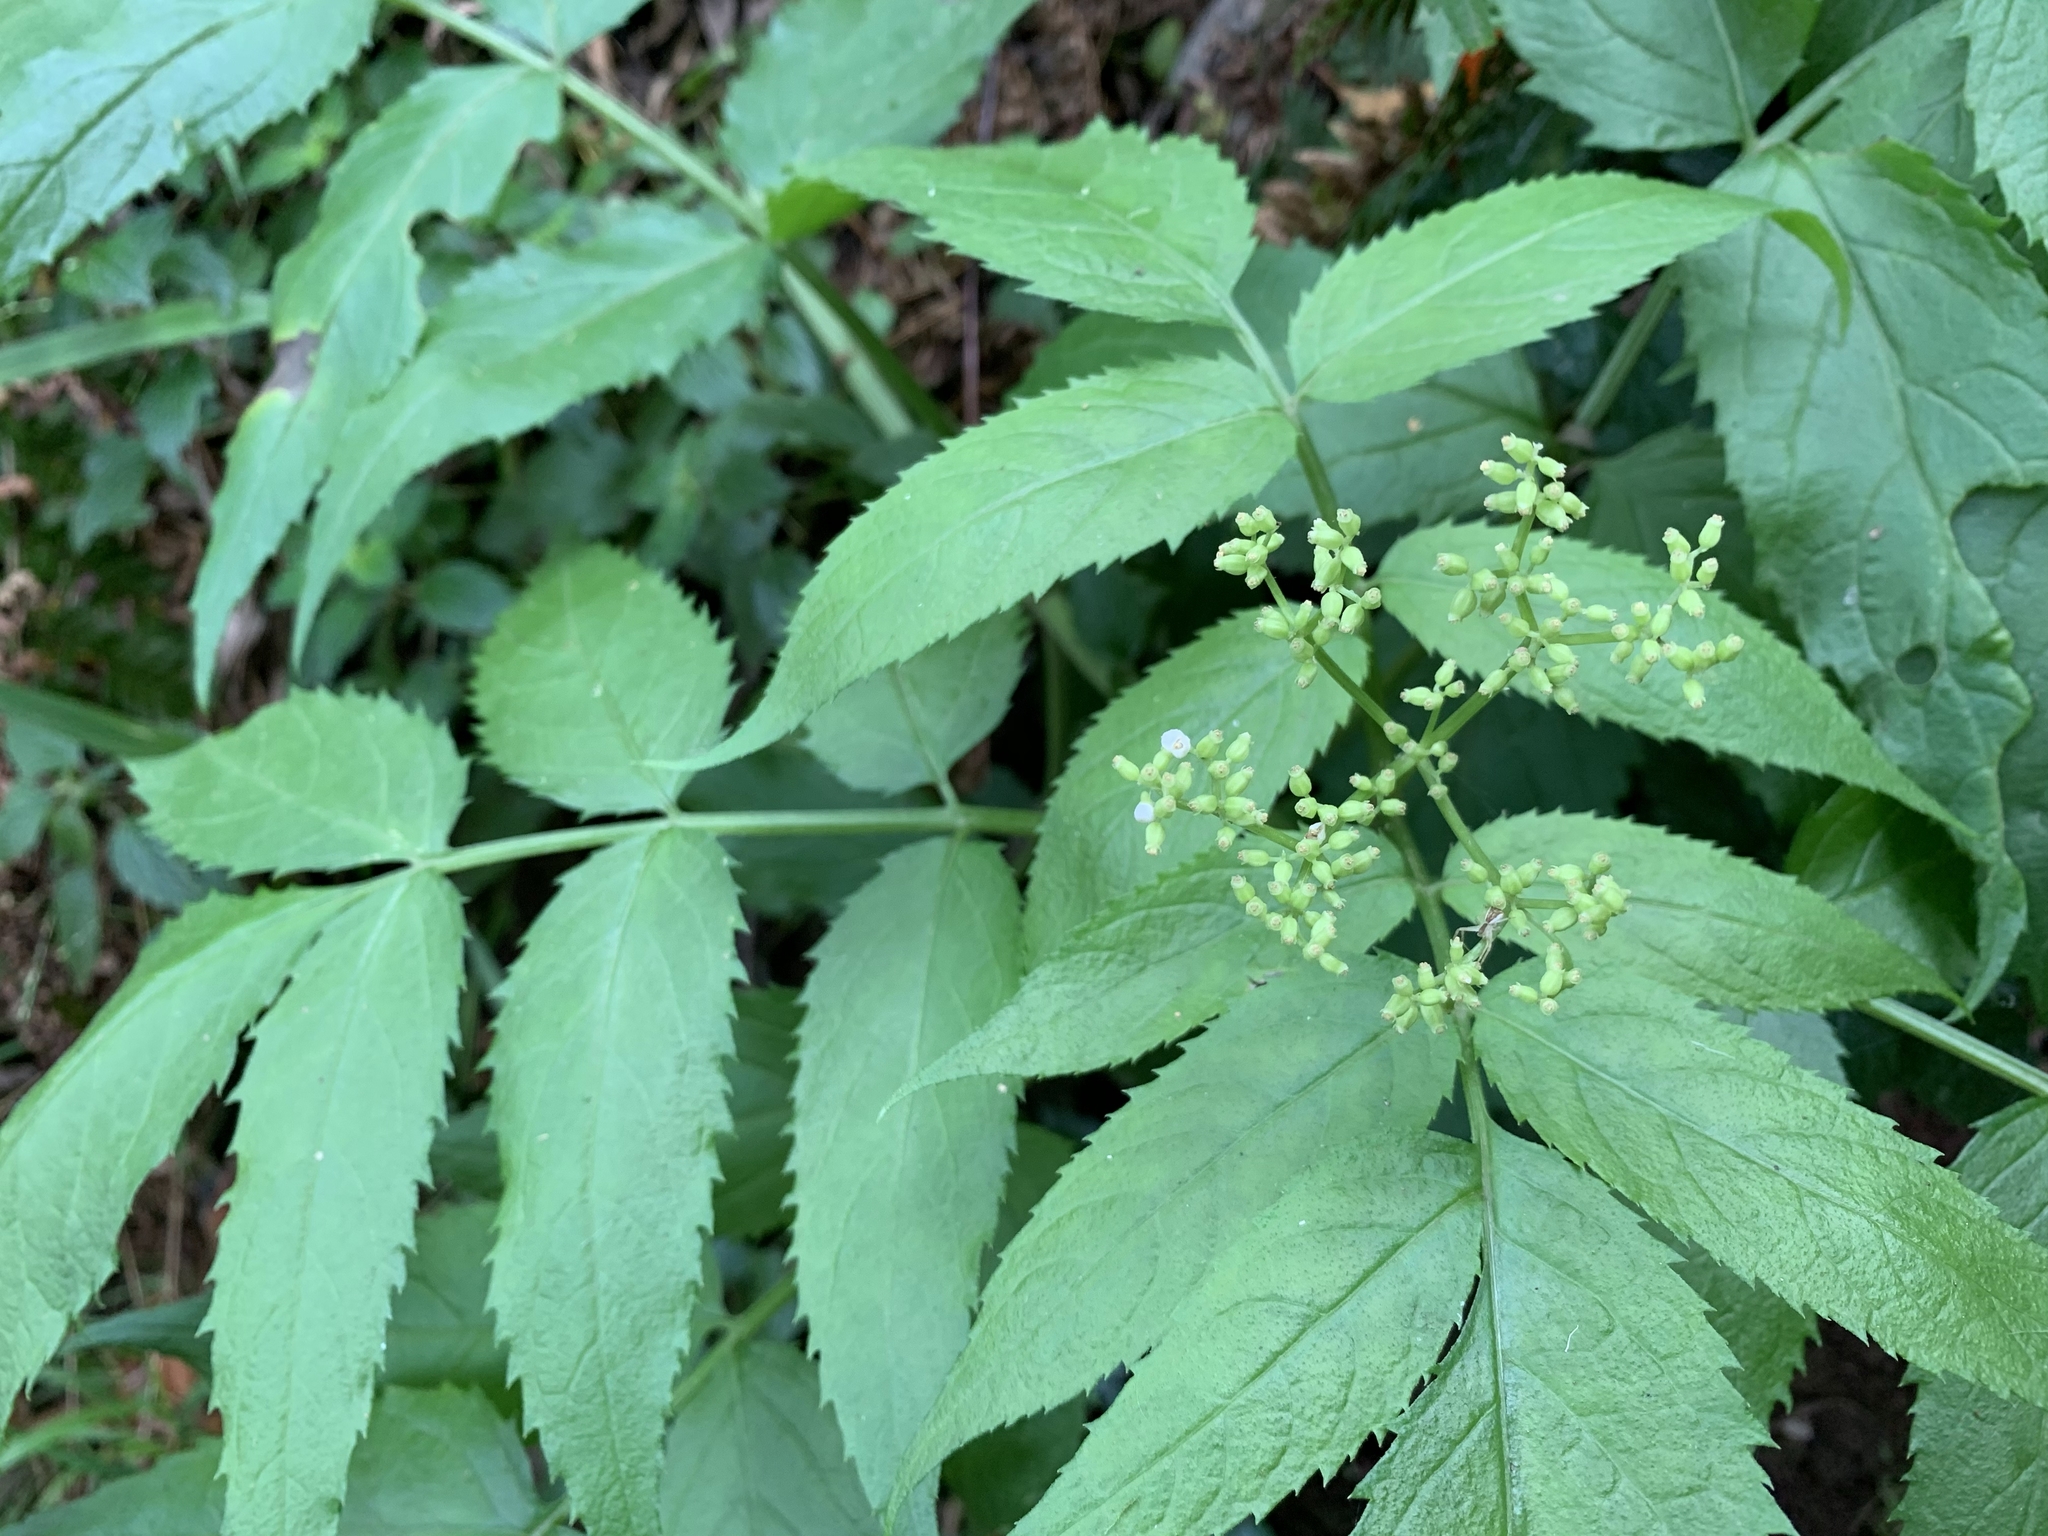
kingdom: Plantae
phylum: Tracheophyta
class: Magnoliopsida
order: Dipsacales
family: Viburnaceae
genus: Sambucus
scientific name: Sambucus gaudichaudiana
